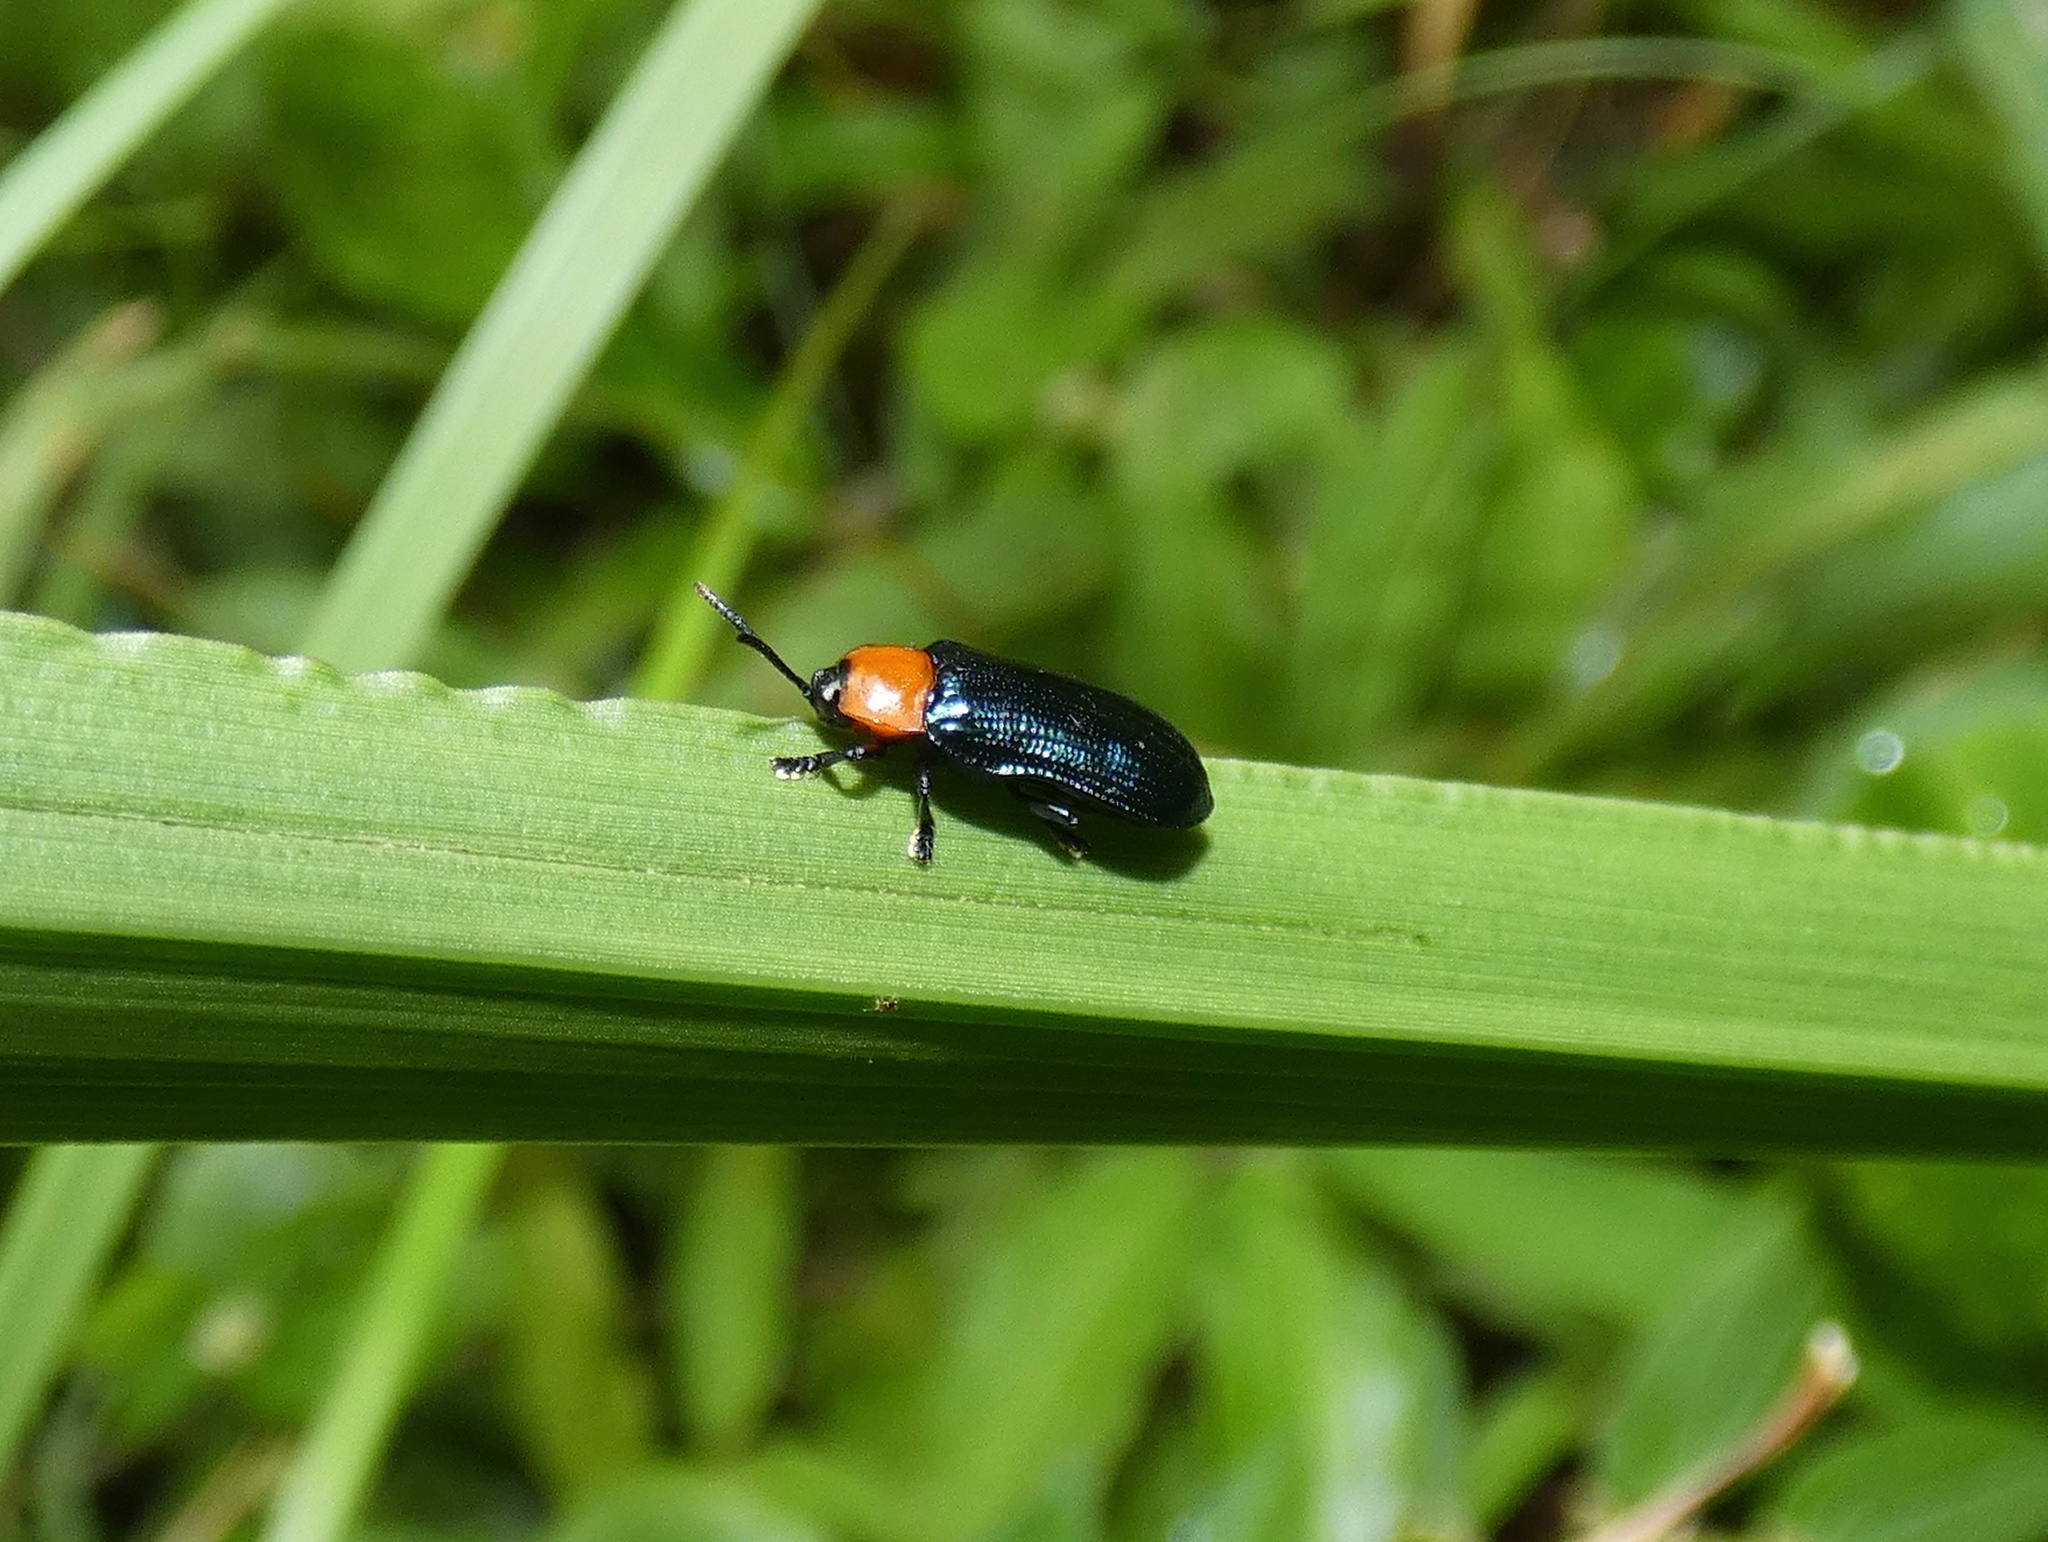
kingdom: Animalia
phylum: Arthropoda
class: Insecta
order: Coleoptera
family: Chrysomelidae
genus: Oediopalpa
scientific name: Oediopalpa guerinii
